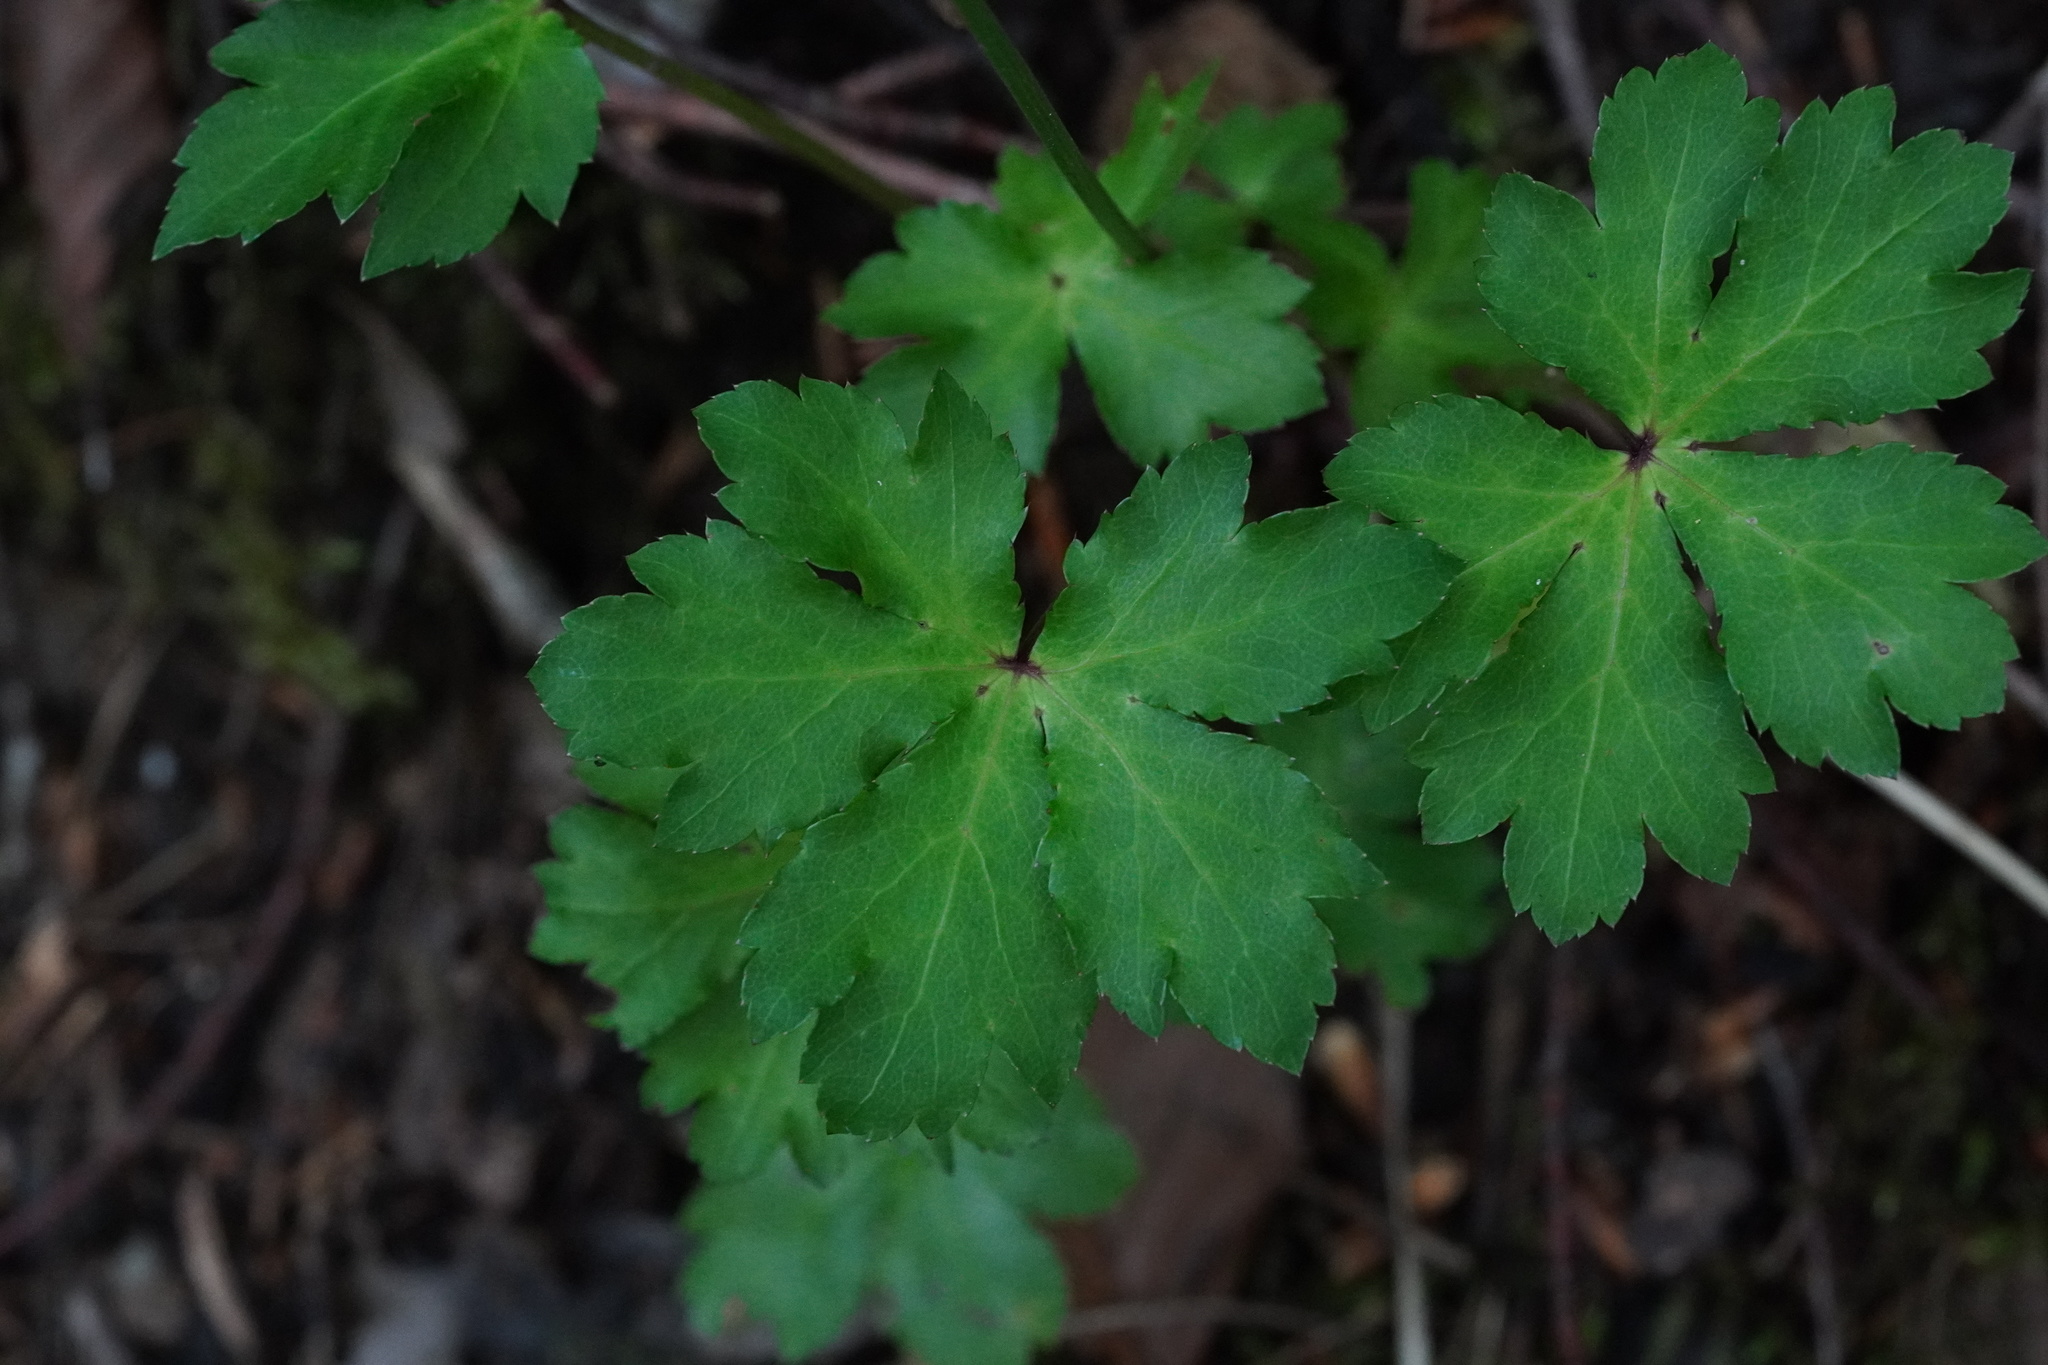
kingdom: Plantae
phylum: Tracheophyta
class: Magnoliopsida
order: Apiales
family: Apiaceae
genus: Sanicula
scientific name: Sanicula europaea
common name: Sanicle
